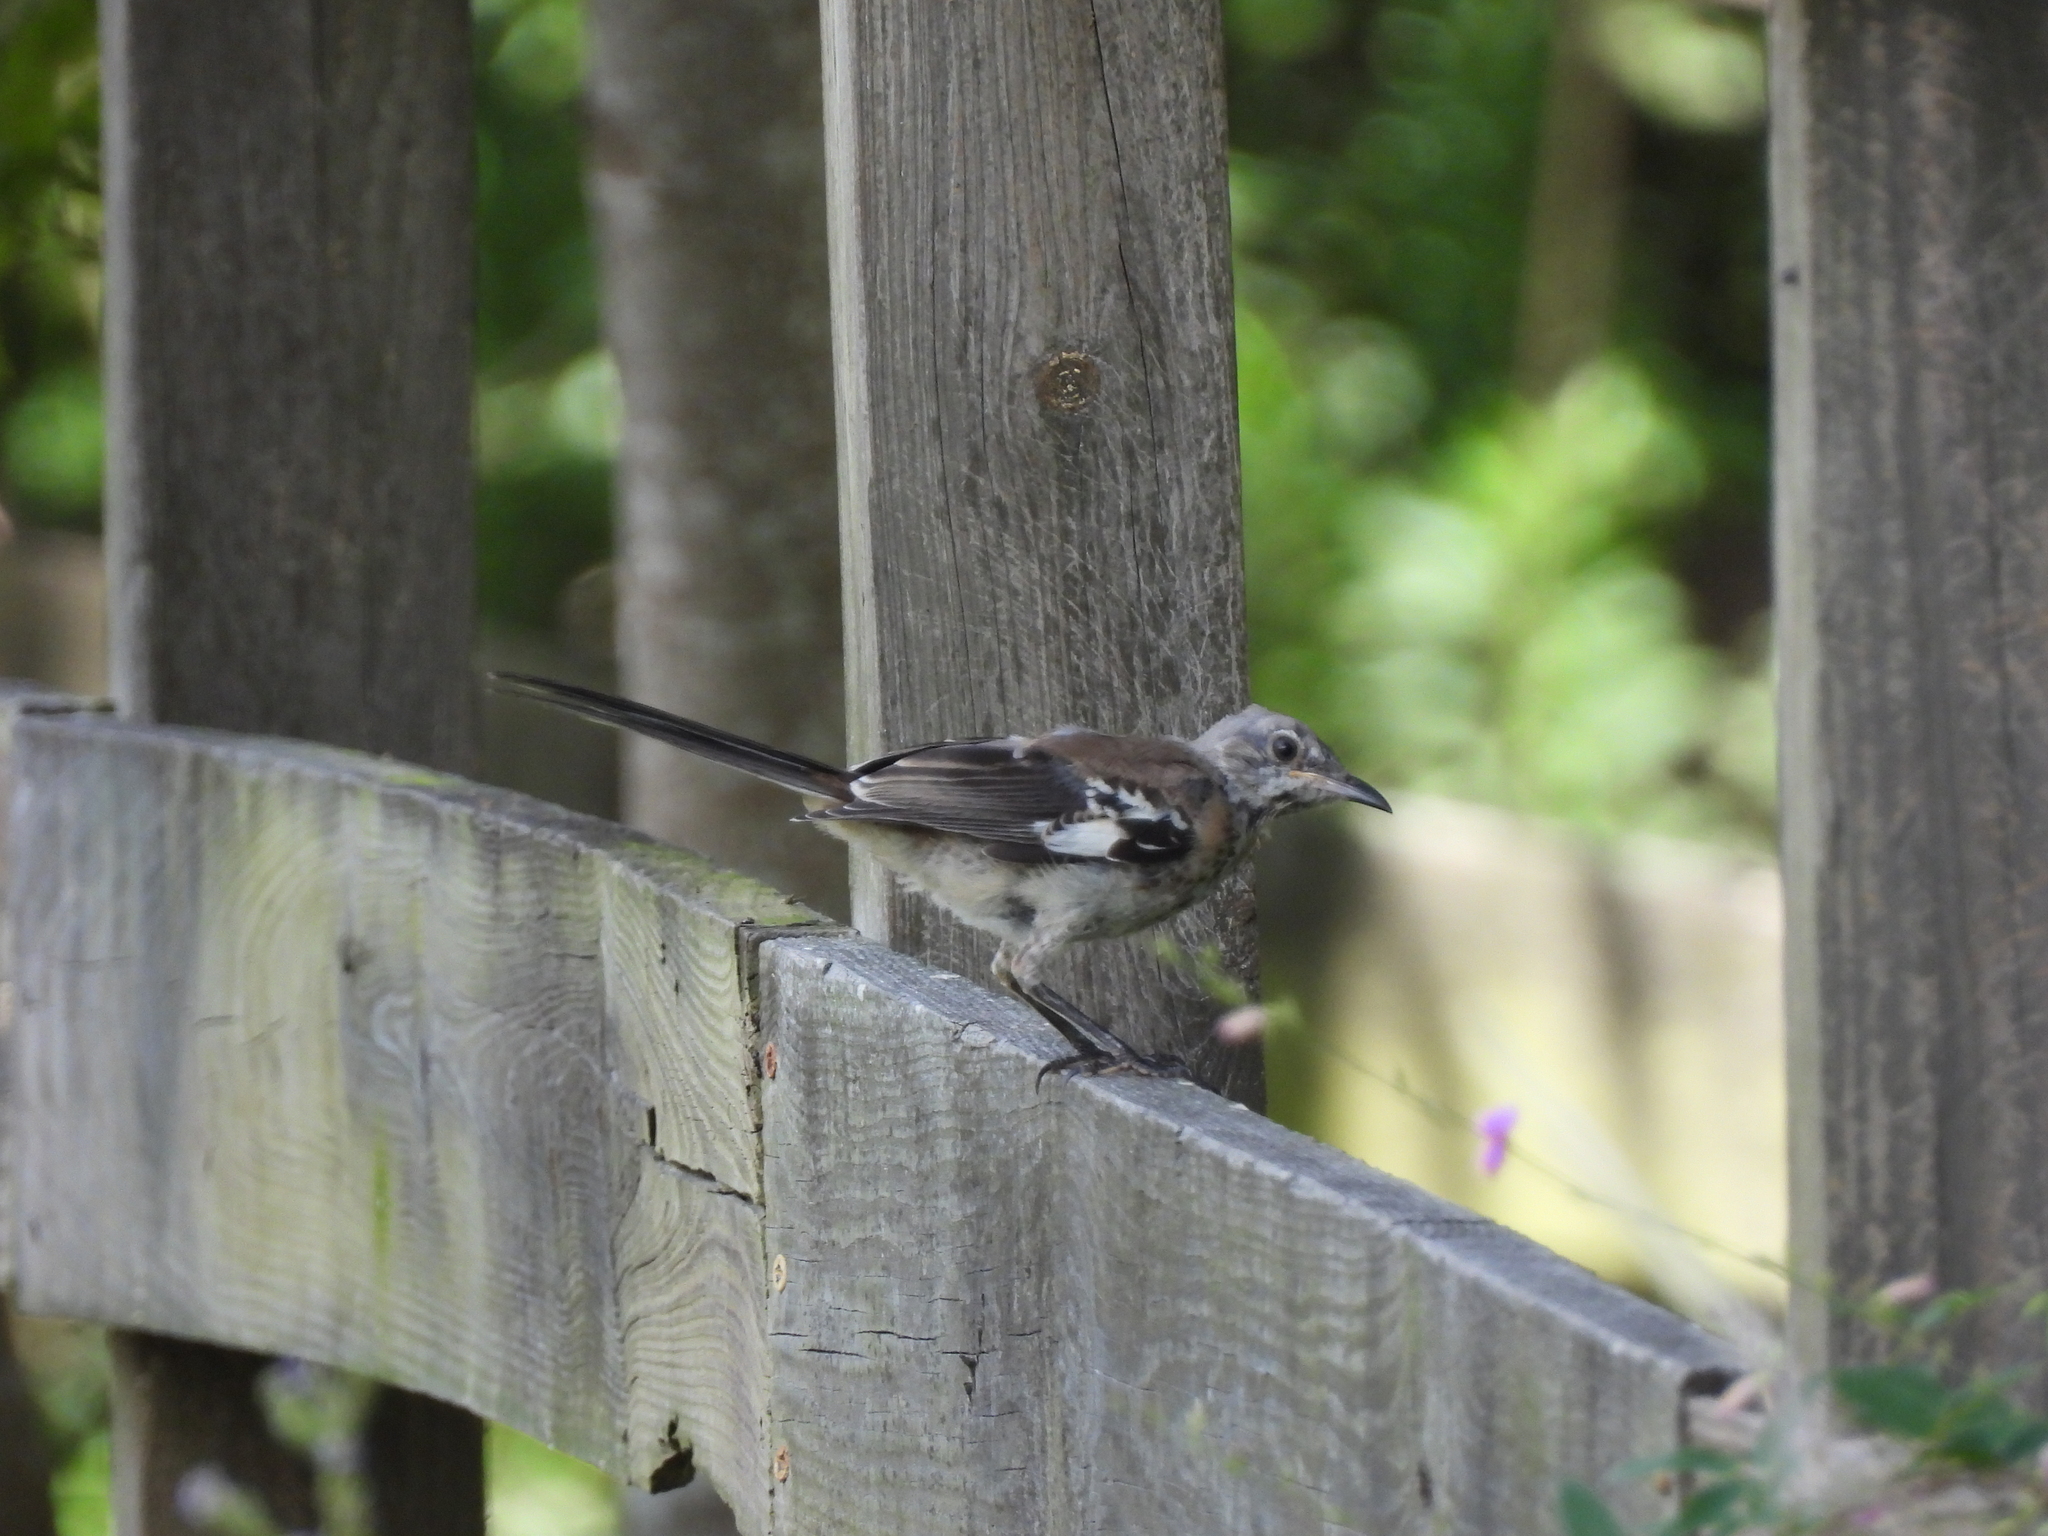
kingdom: Animalia
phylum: Chordata
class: Aves
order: Passeriformes
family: Mimidae
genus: Mimus
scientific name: Mimus polyglottos
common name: Northern mockingbird
